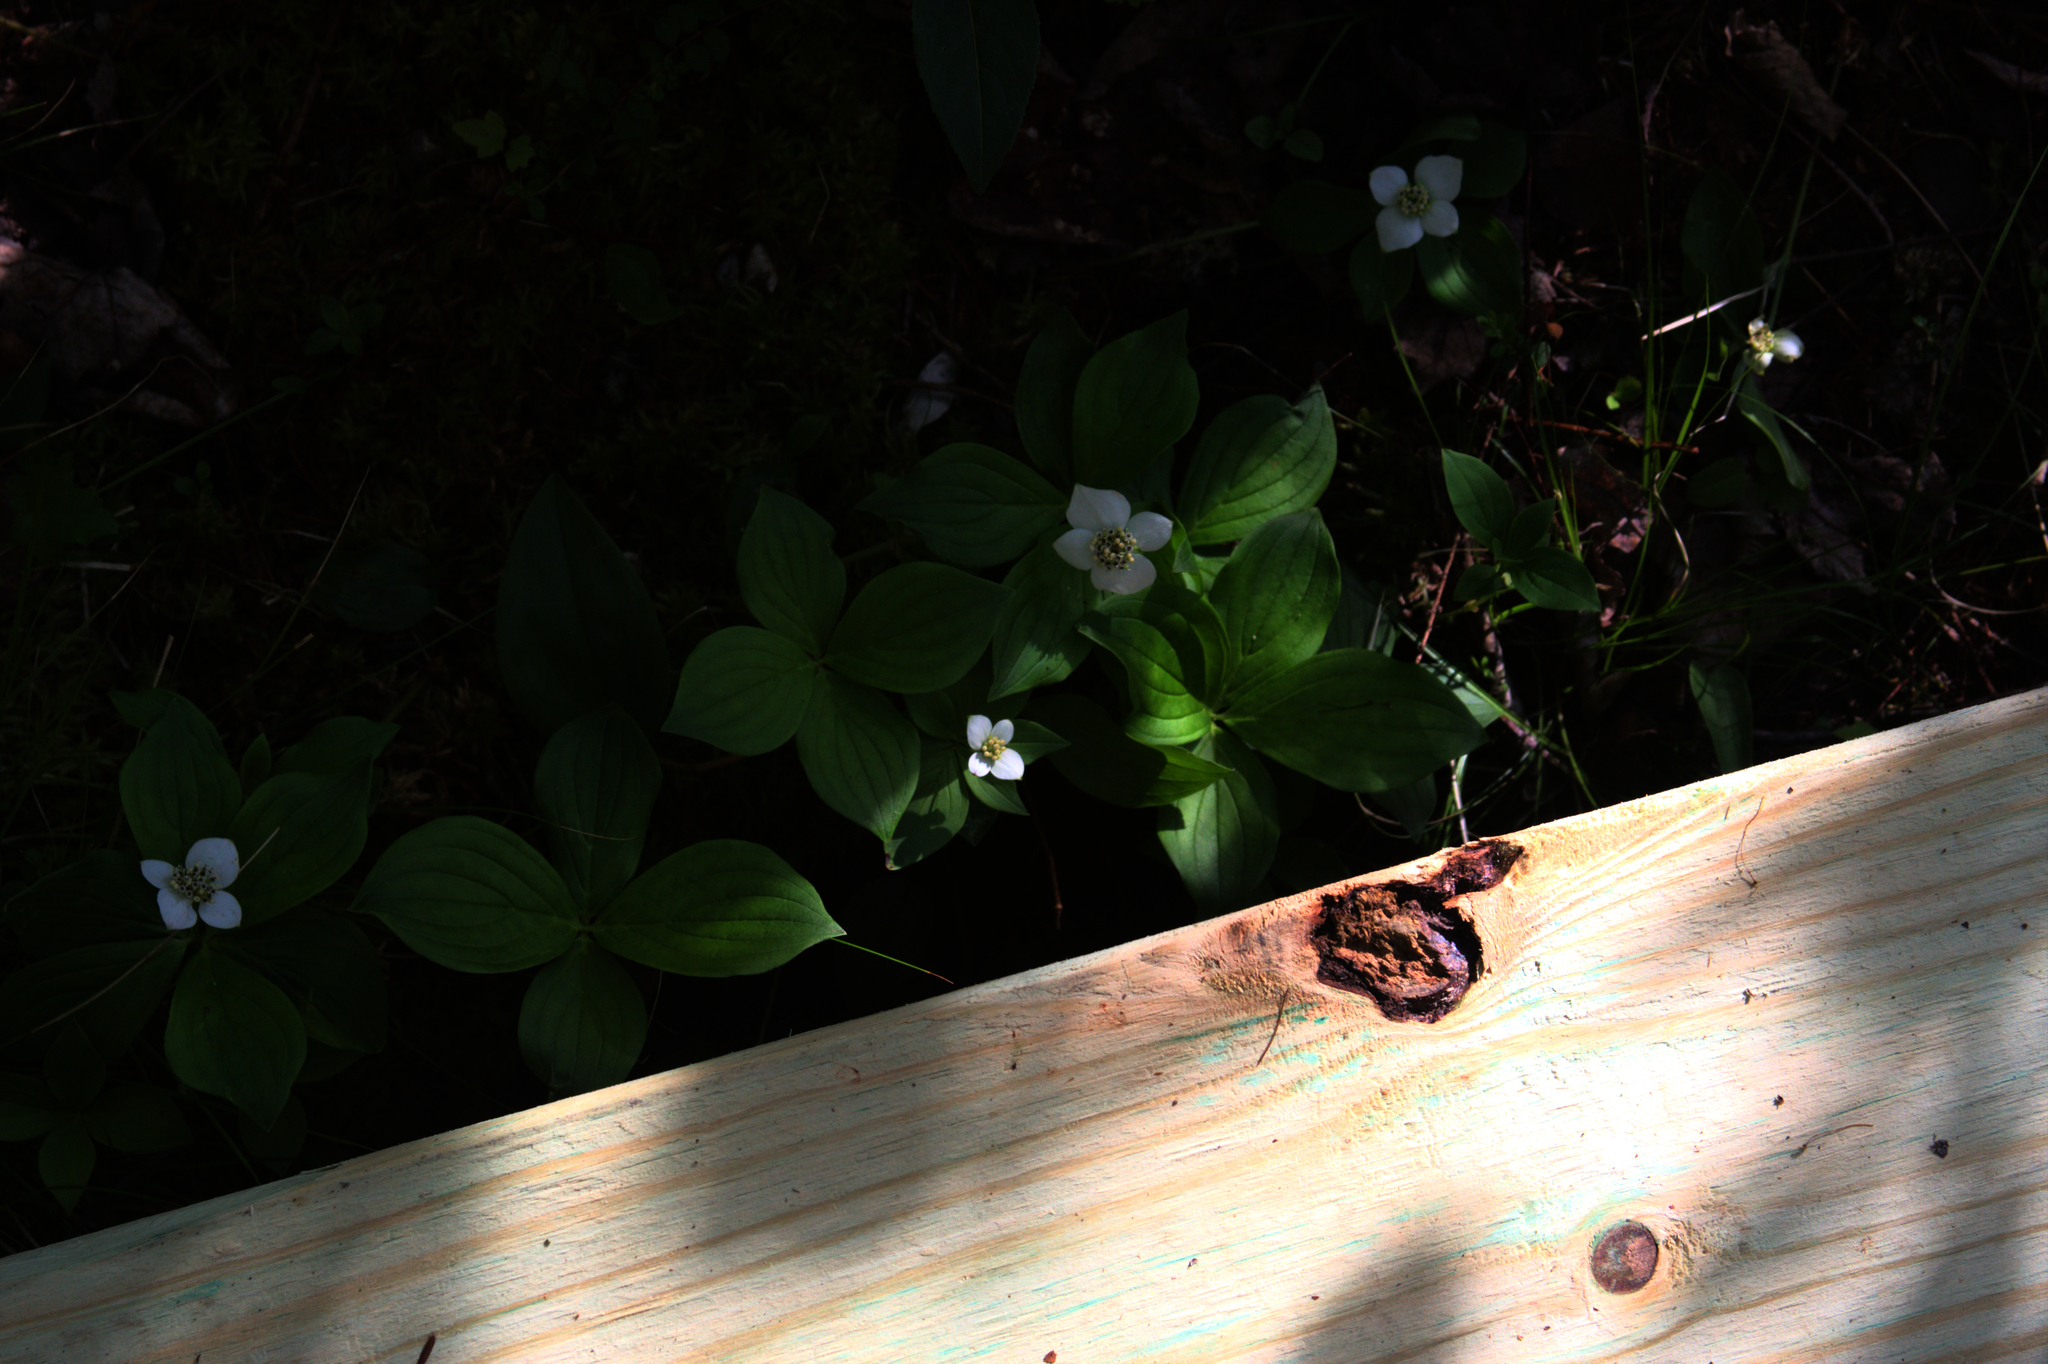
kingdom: Plantae
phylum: Tracheophyta
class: Magnoliopsida
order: Cornales
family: Cornaceae
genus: Cornus
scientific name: Cornus canadensis
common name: Creeping dogwood
